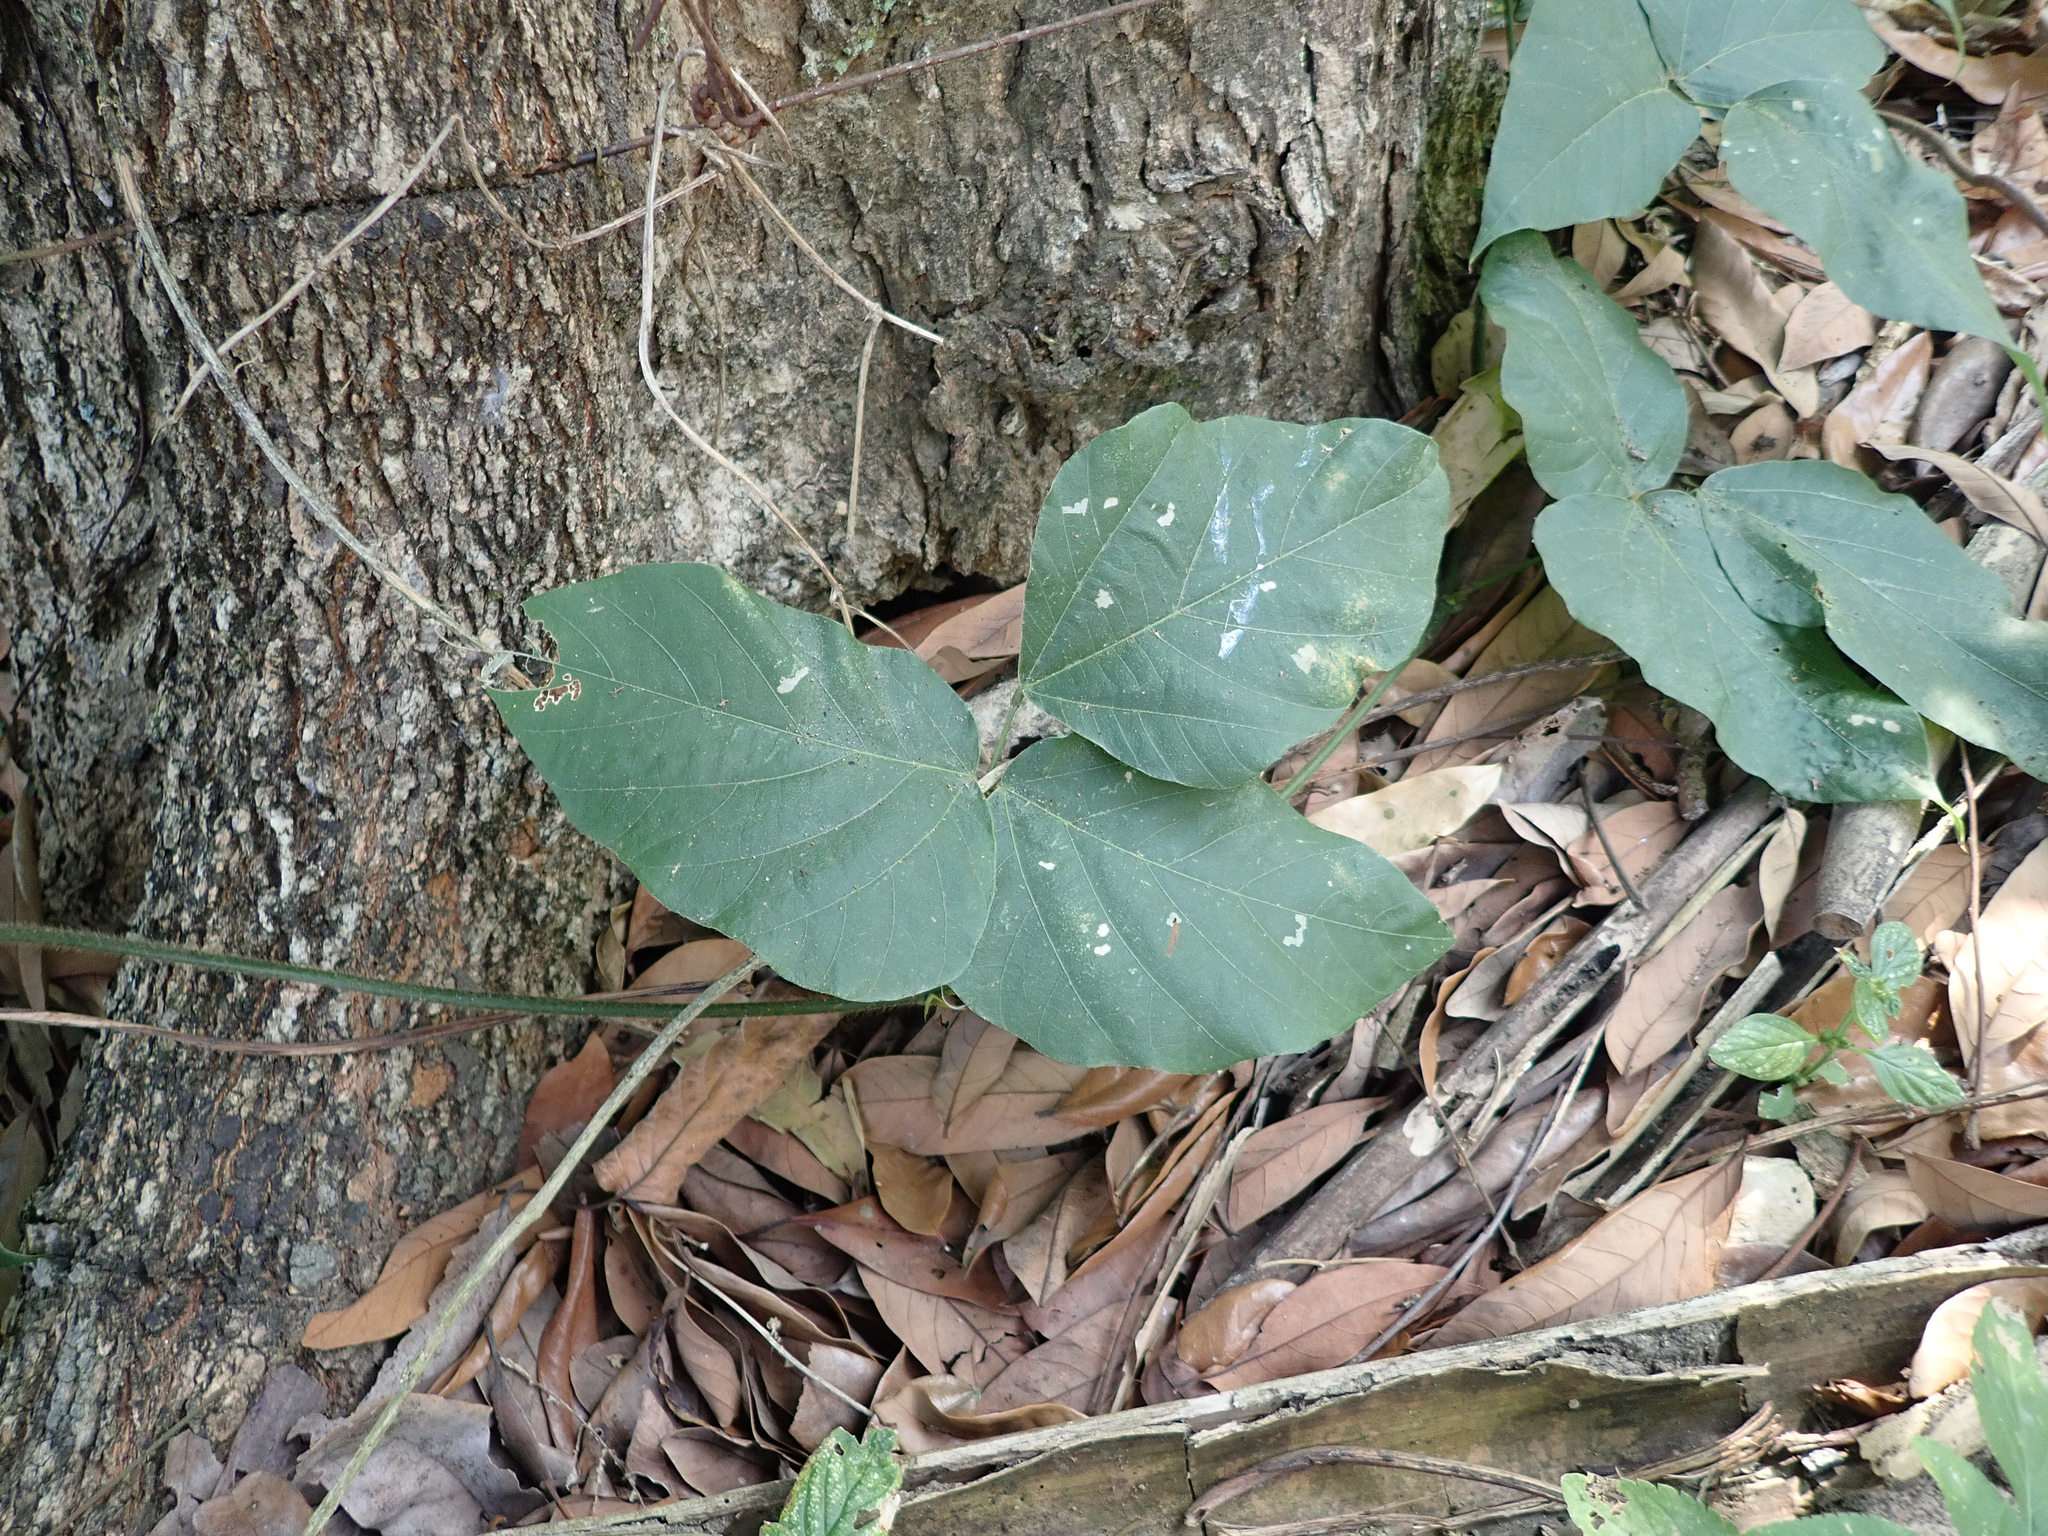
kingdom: Plantae
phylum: Tracheophyta
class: Magnoliopsida
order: Fabales
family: Fabaceae
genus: Pueraria
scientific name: Pueraria montana
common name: Kudzu
